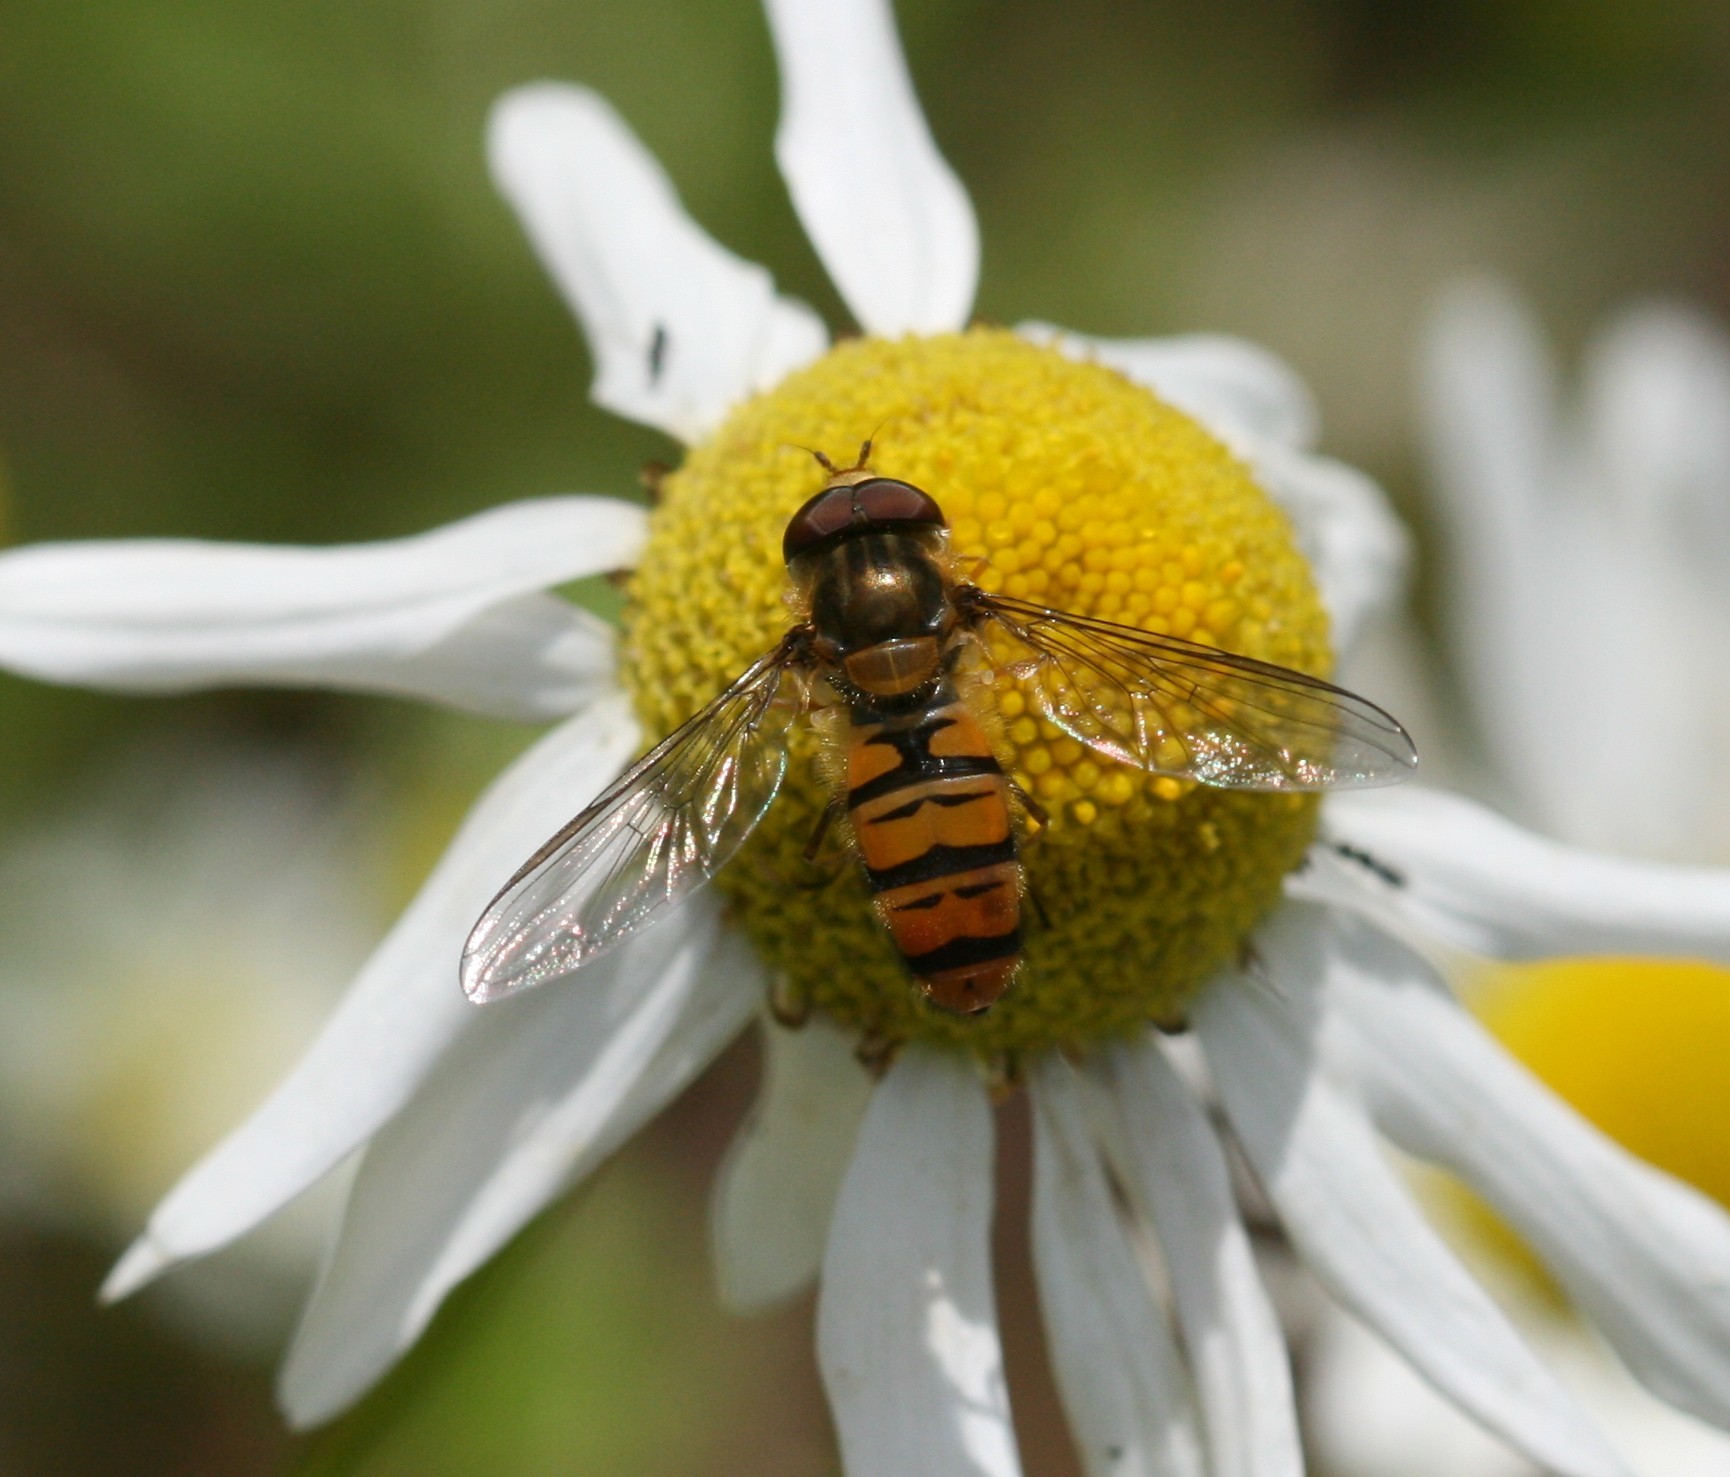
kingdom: Animalia
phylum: Arthropoda
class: Insecta
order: Diptera
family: Syrphidae
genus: Episyrphus
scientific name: Episyrphus balteatus
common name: Marmalade hoverfly
